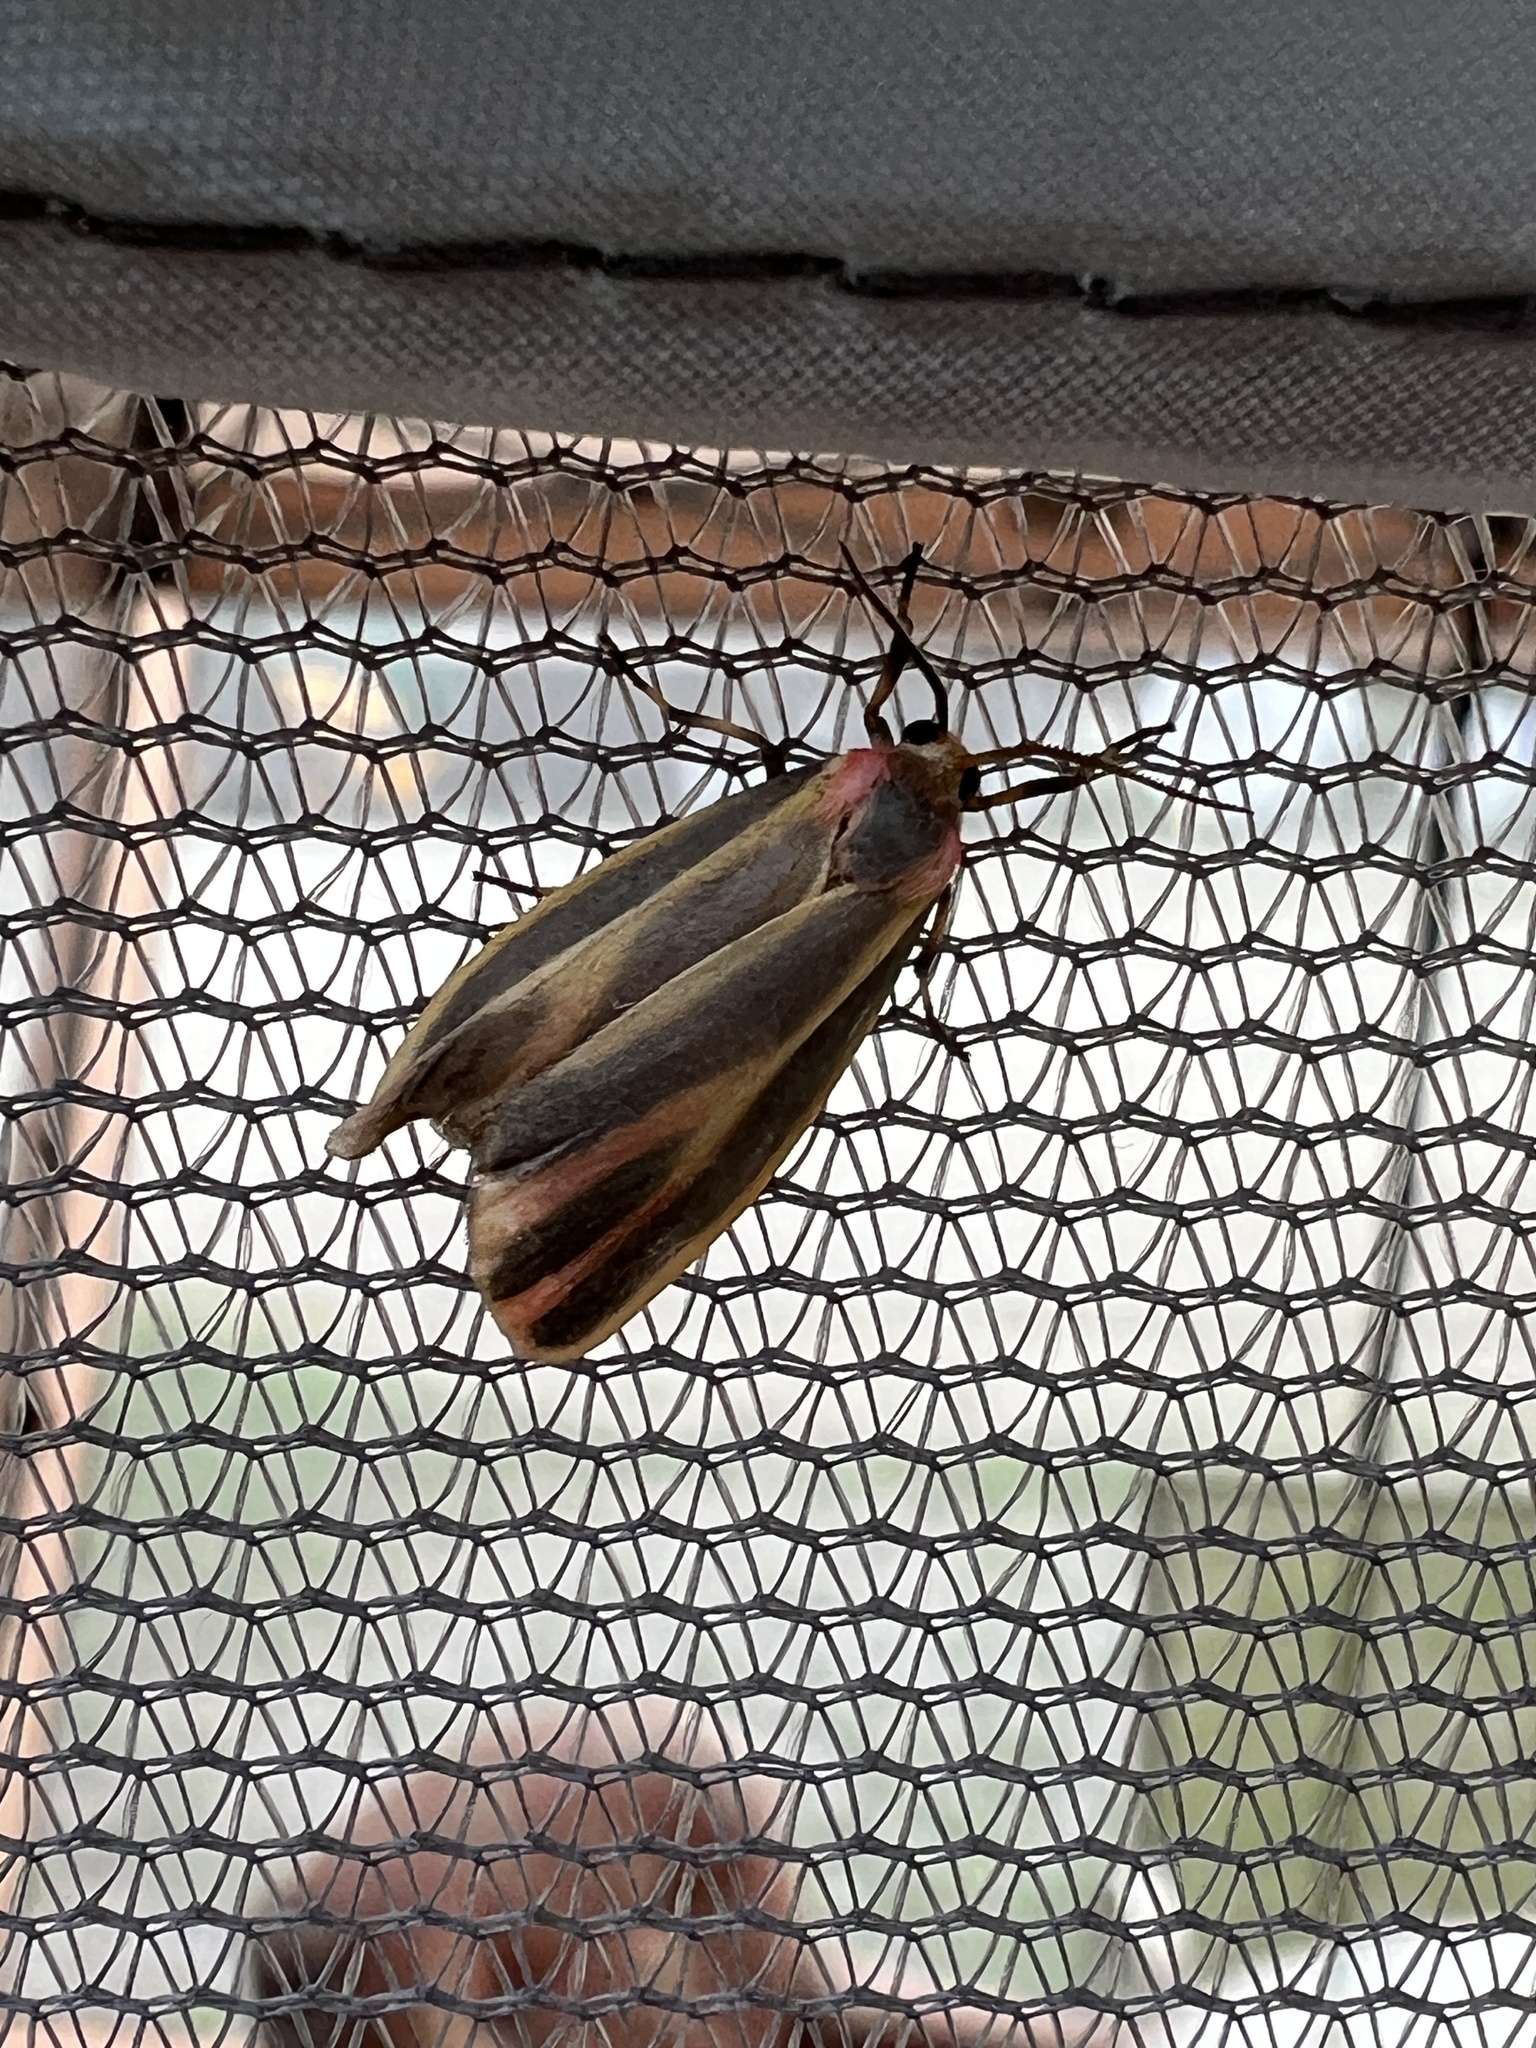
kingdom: Animalia
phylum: Arthropoda
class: Insecta
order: Lepidoptera
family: Erebidae
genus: Hypoprepia
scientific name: Hypoprepia fucosa
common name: Painted lichen moth
